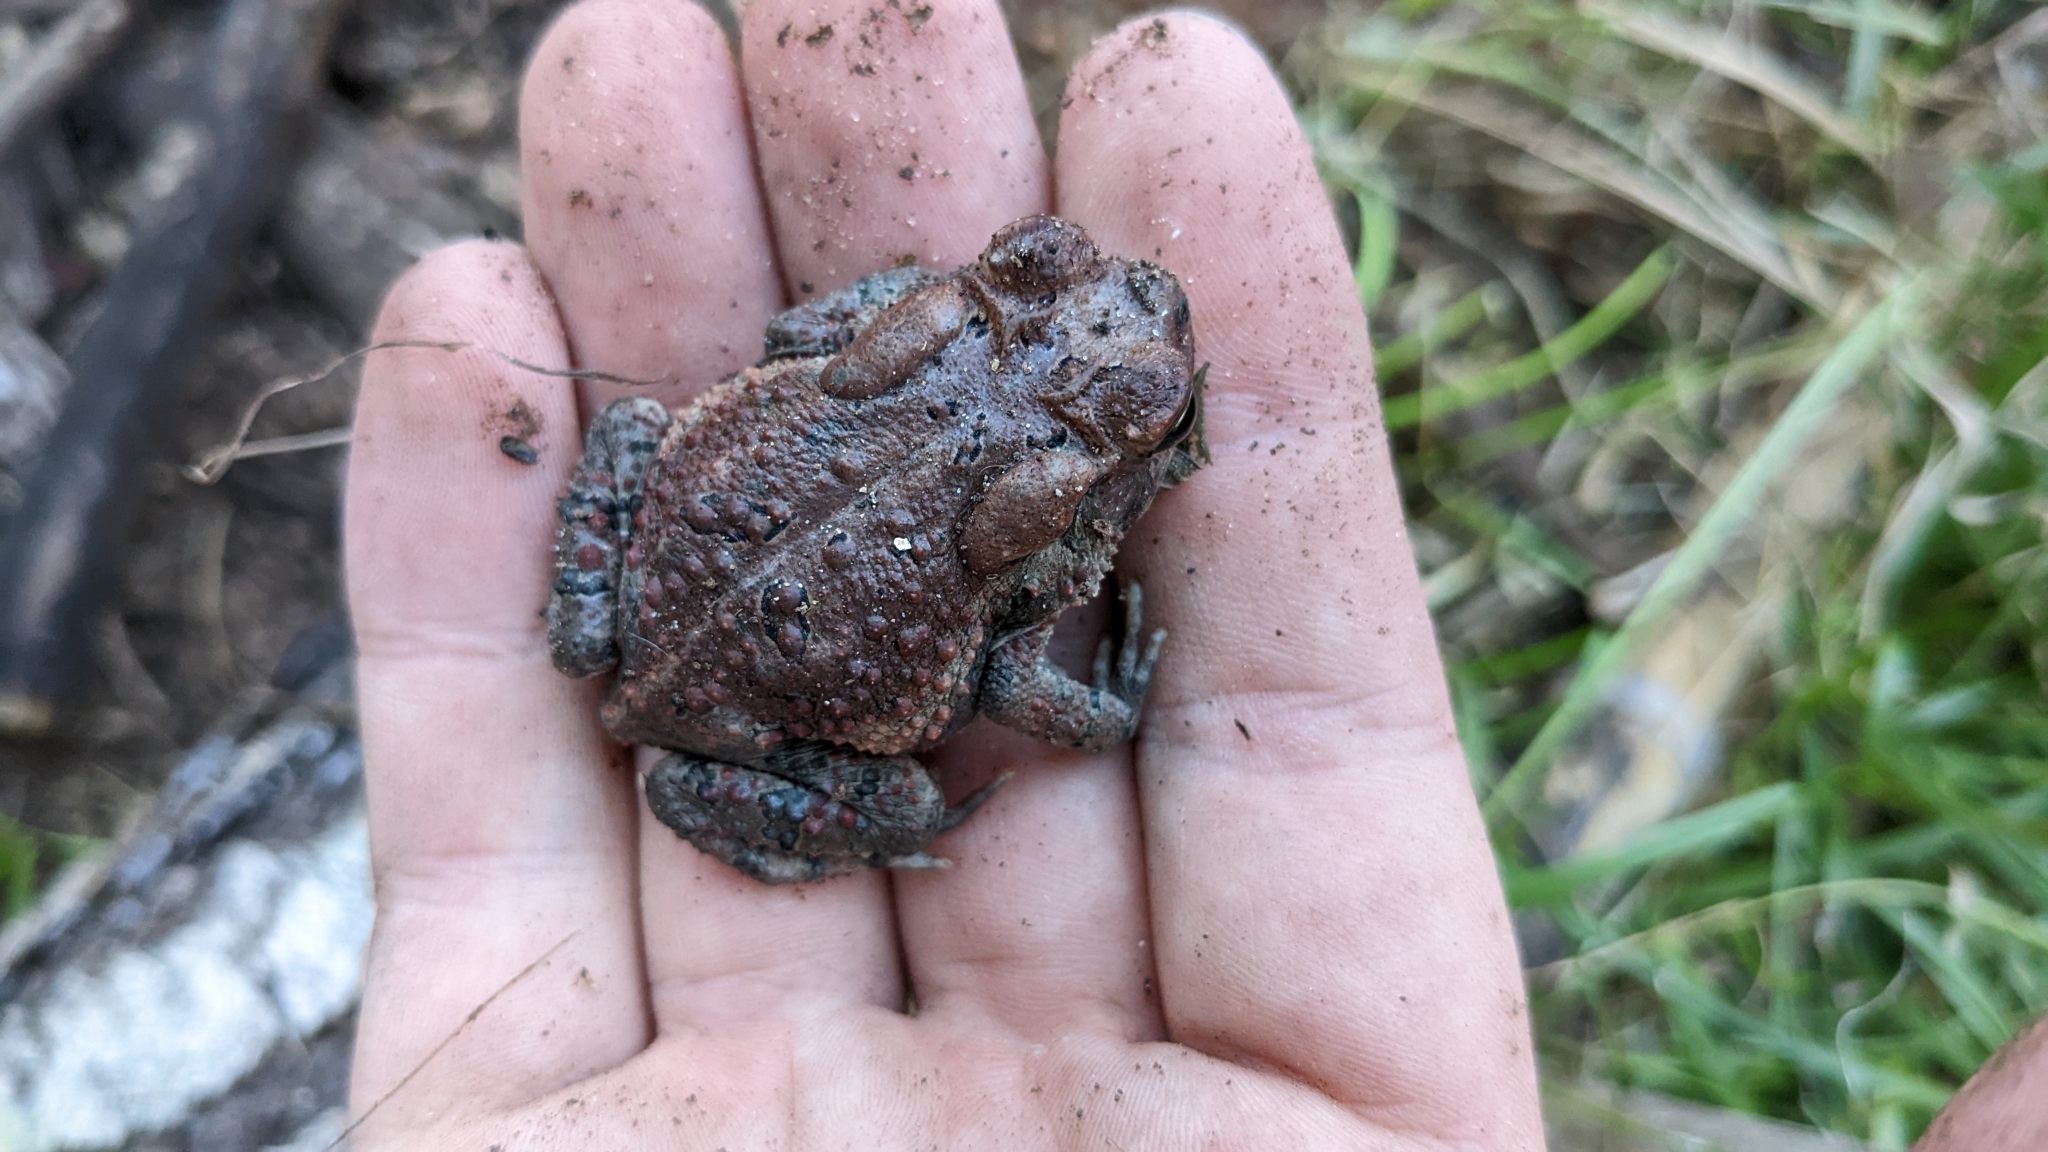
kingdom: Animalia
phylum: Chordata
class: Amphibia
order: Anura
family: Bufonidae
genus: Anaxyrus
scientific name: Anaxyrus fowleri
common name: Fowler's toad
